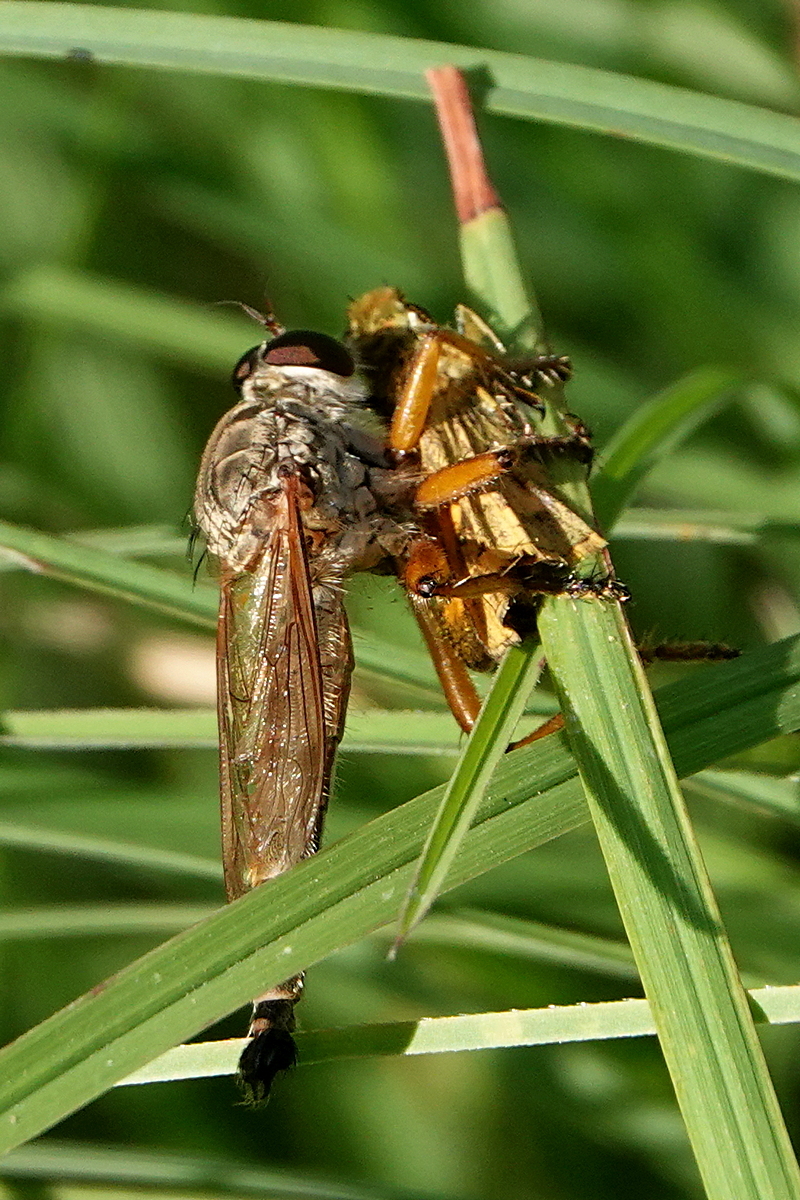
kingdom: Animalia
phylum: Arthropoda
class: Insecta
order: Diptera
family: Asilidae
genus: Zosteria
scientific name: Zosteria fulvipubescens
